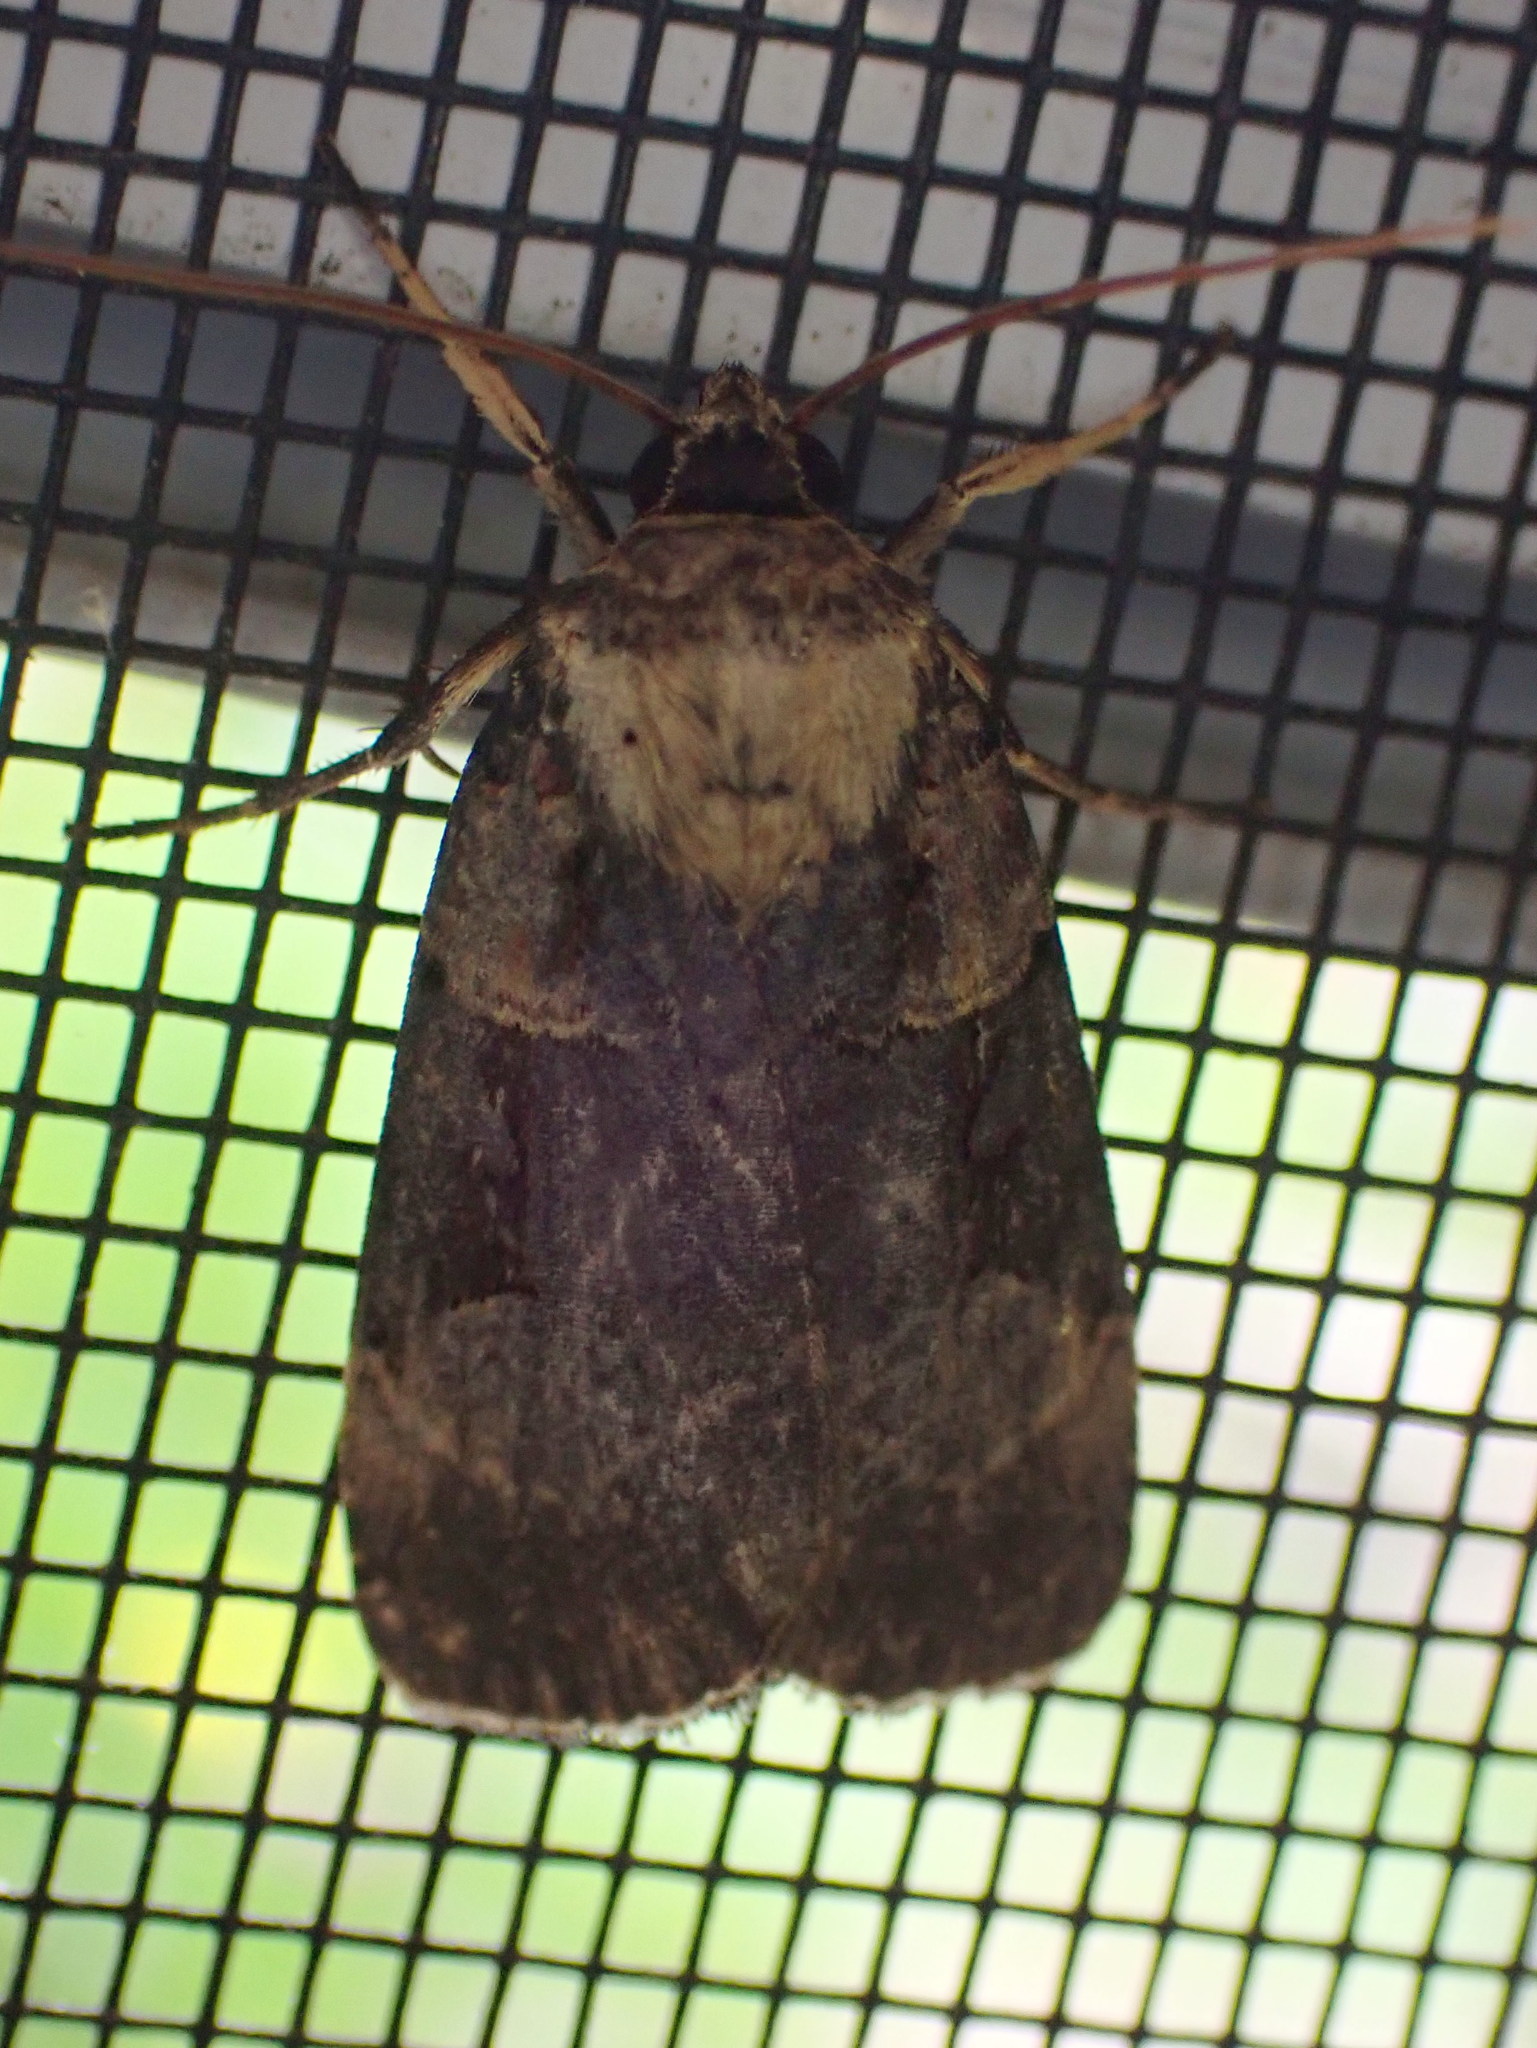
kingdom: Animalia
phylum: Arthropoda
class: Insecta
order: Lepidoptera
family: Noctuidae
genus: Pseudohermonassa
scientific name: Pseudohermonassa bicarnea
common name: Pink spotted dart
